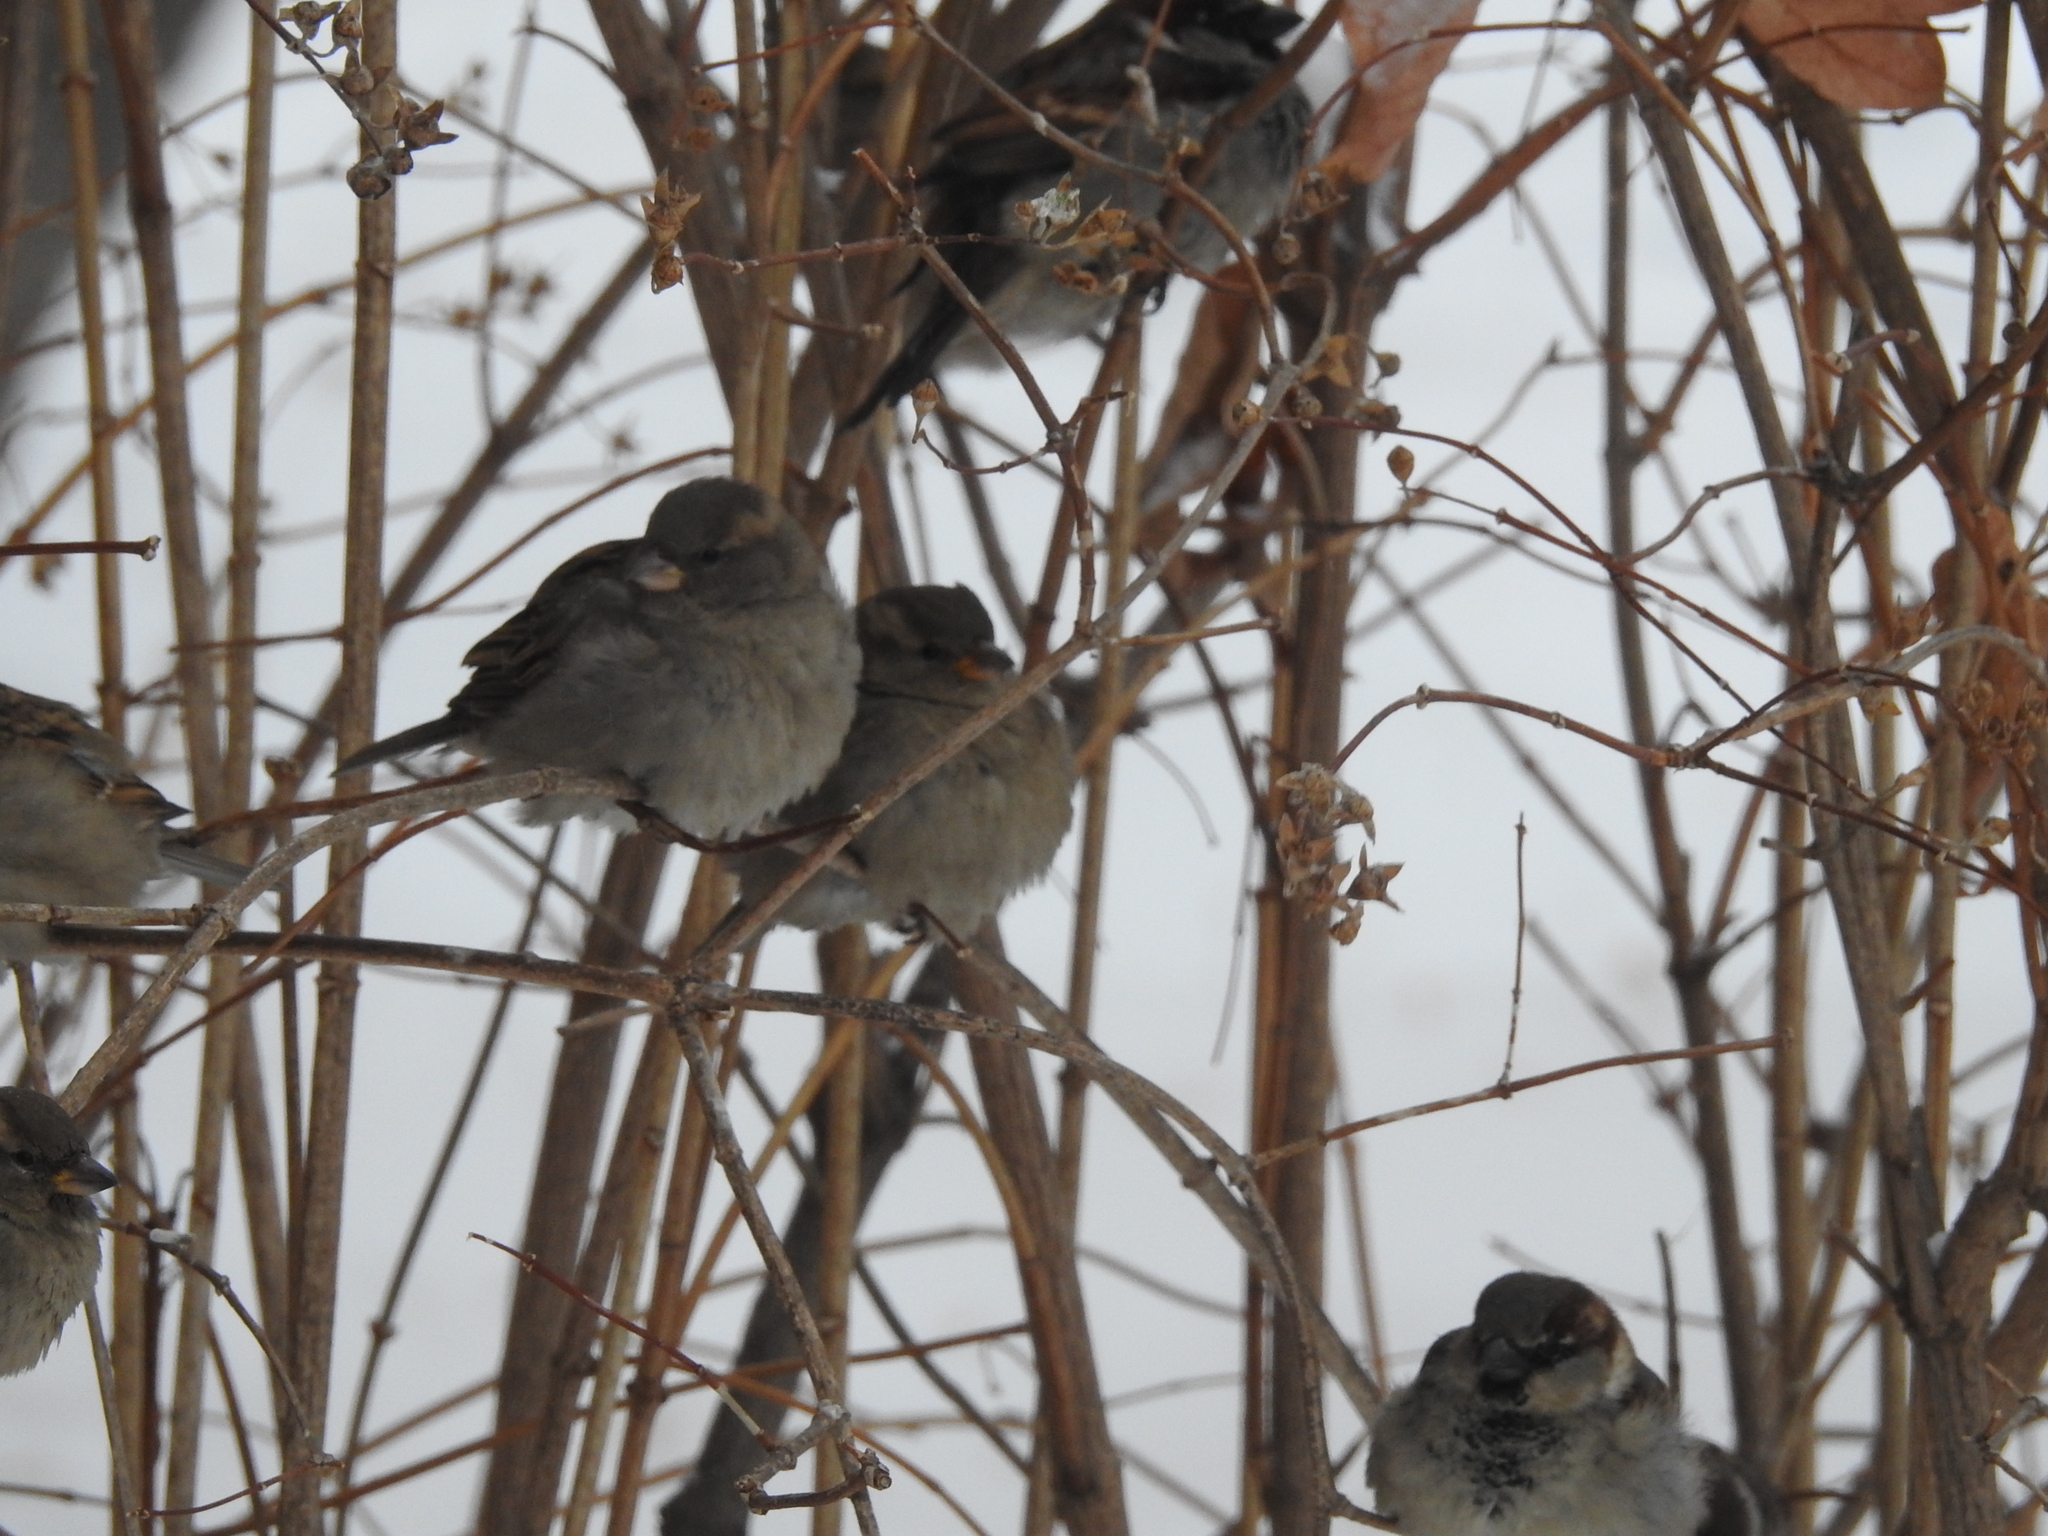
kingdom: Animalia
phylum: Chordata
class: Aves
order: Passeriformes
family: Passeridae
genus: Passer
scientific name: Passer domesticus
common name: House sparrow
